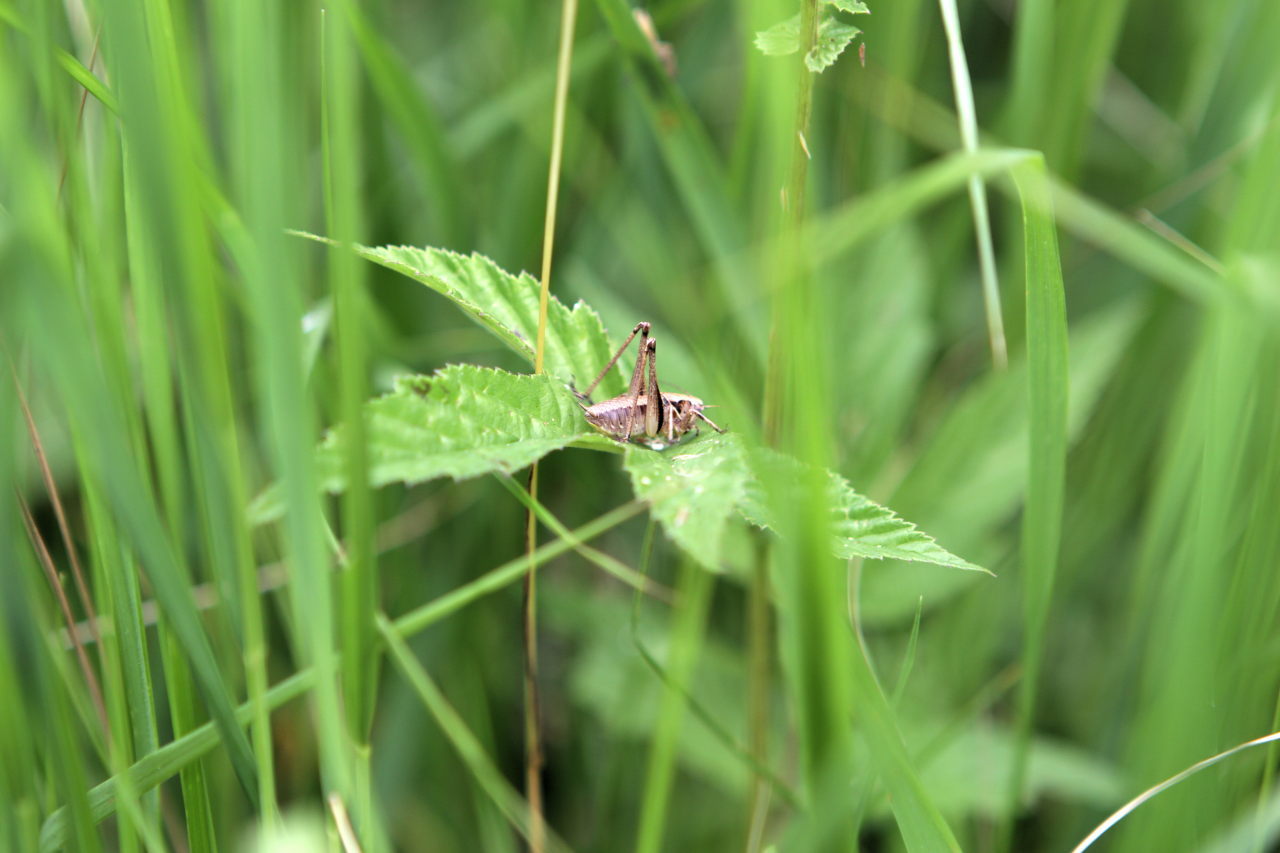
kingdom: Animalia
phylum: Arthropoda
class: Insecta
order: Orthoptera
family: Tettigoniidae
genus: Pholidoptera
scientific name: Pholidoptera griseoaptera
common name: Dark bush-cricket
